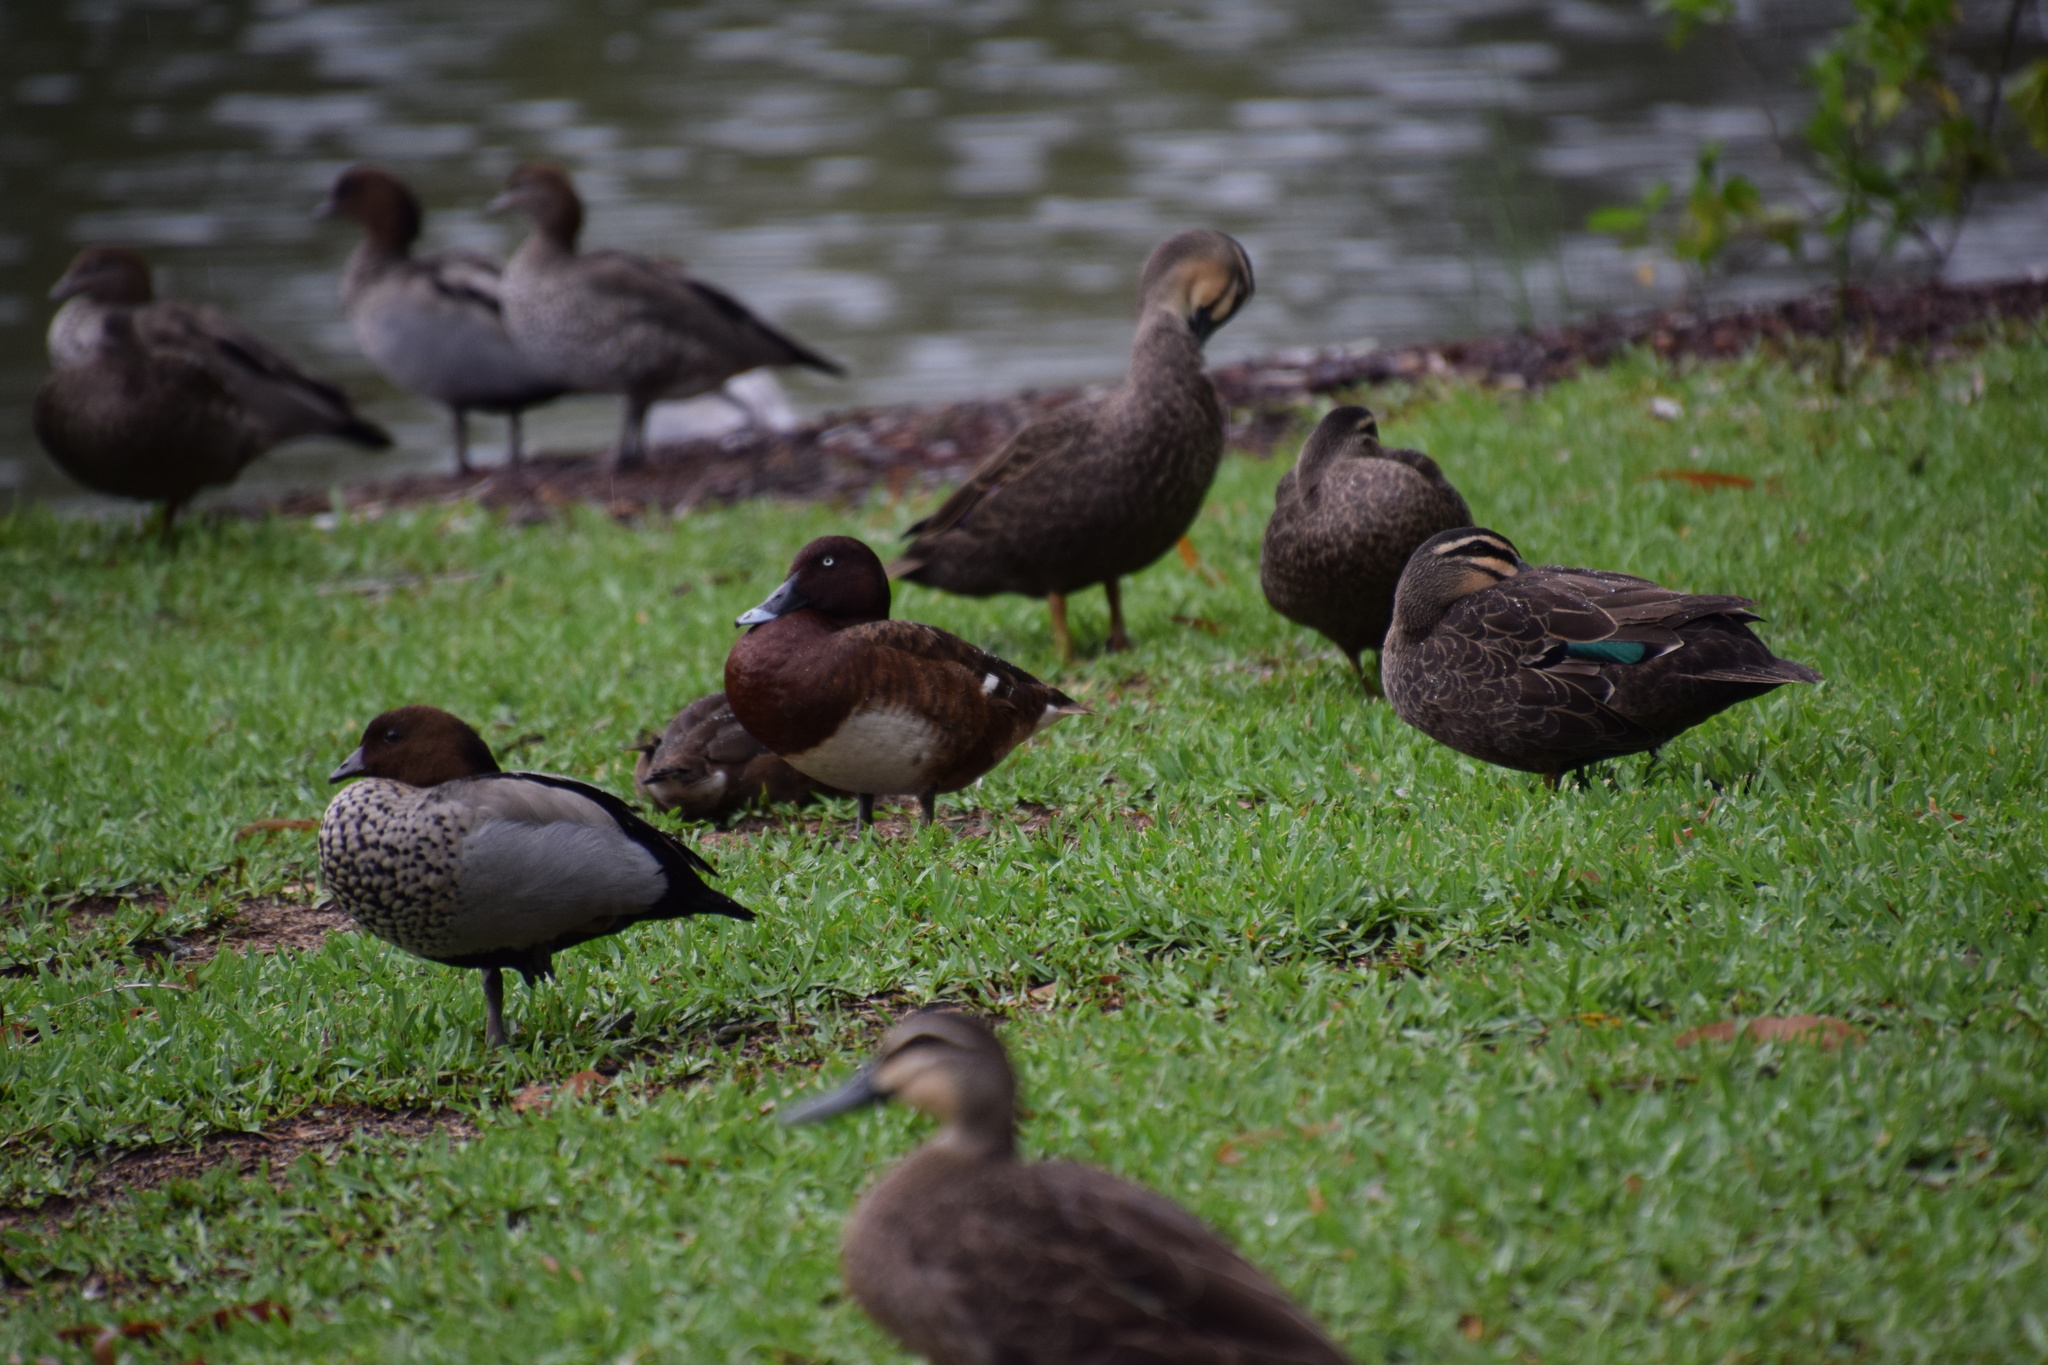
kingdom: Animalia
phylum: Chordata
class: Aves
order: Anseriformes
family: Anatidae
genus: Aythya
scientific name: Aythya australis
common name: Hardhead
